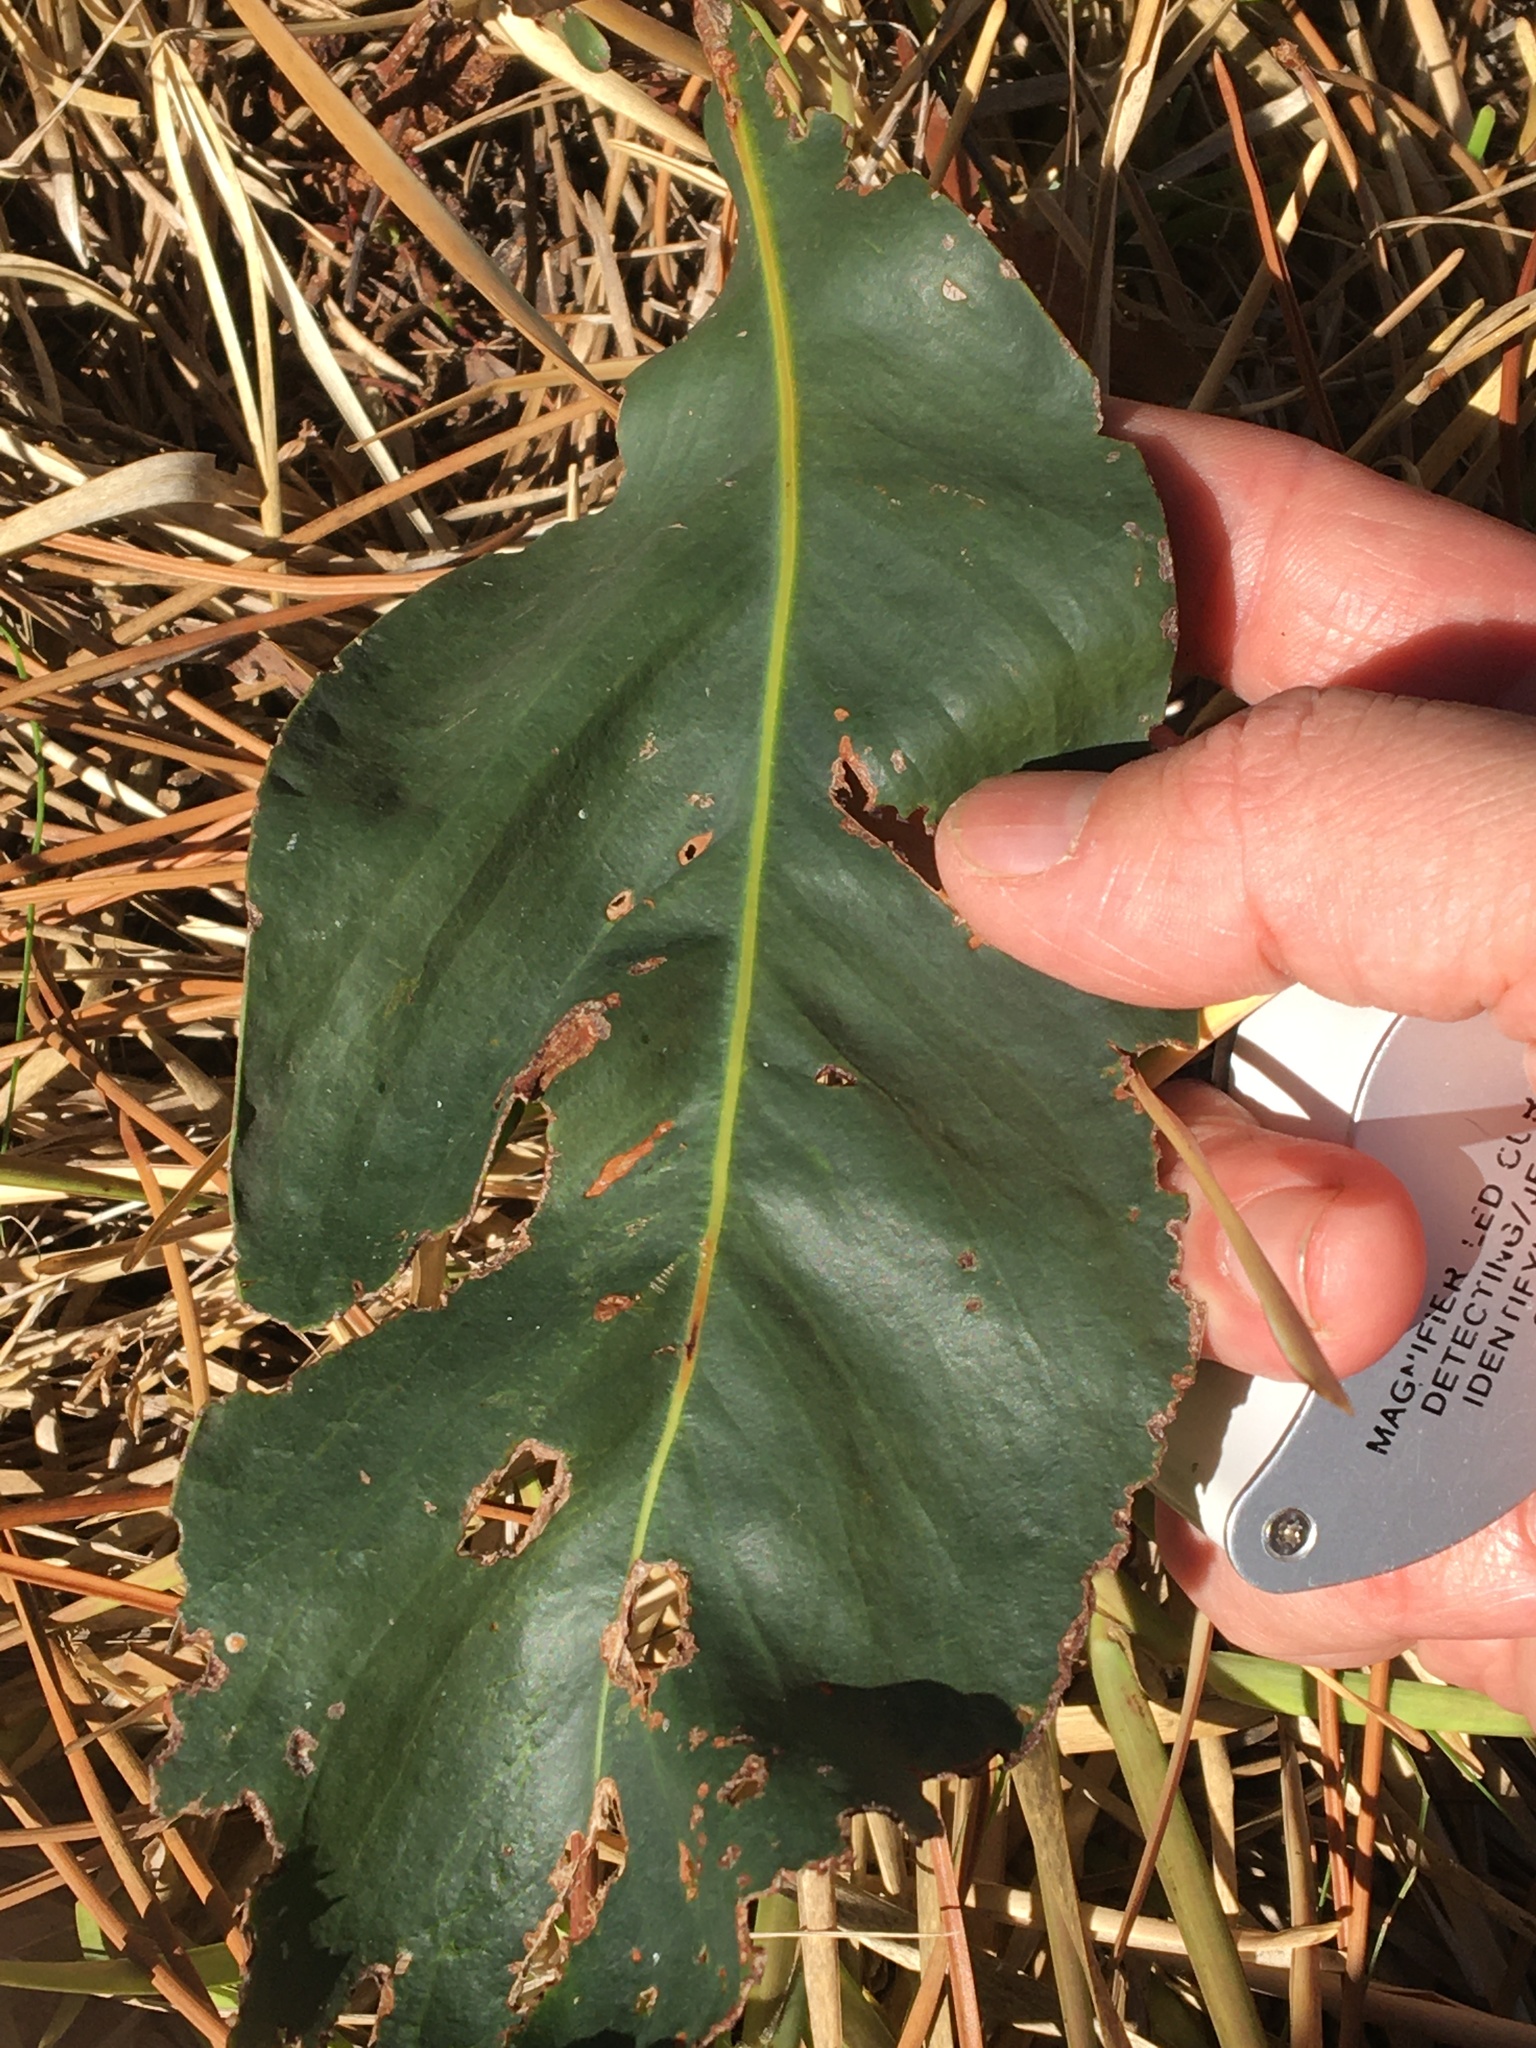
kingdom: Plantae
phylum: Tracheophyta
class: Magnoliopsida
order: Fabales
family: Fabaceae
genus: Acacia
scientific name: Acacia saligna
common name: Orange wattle
